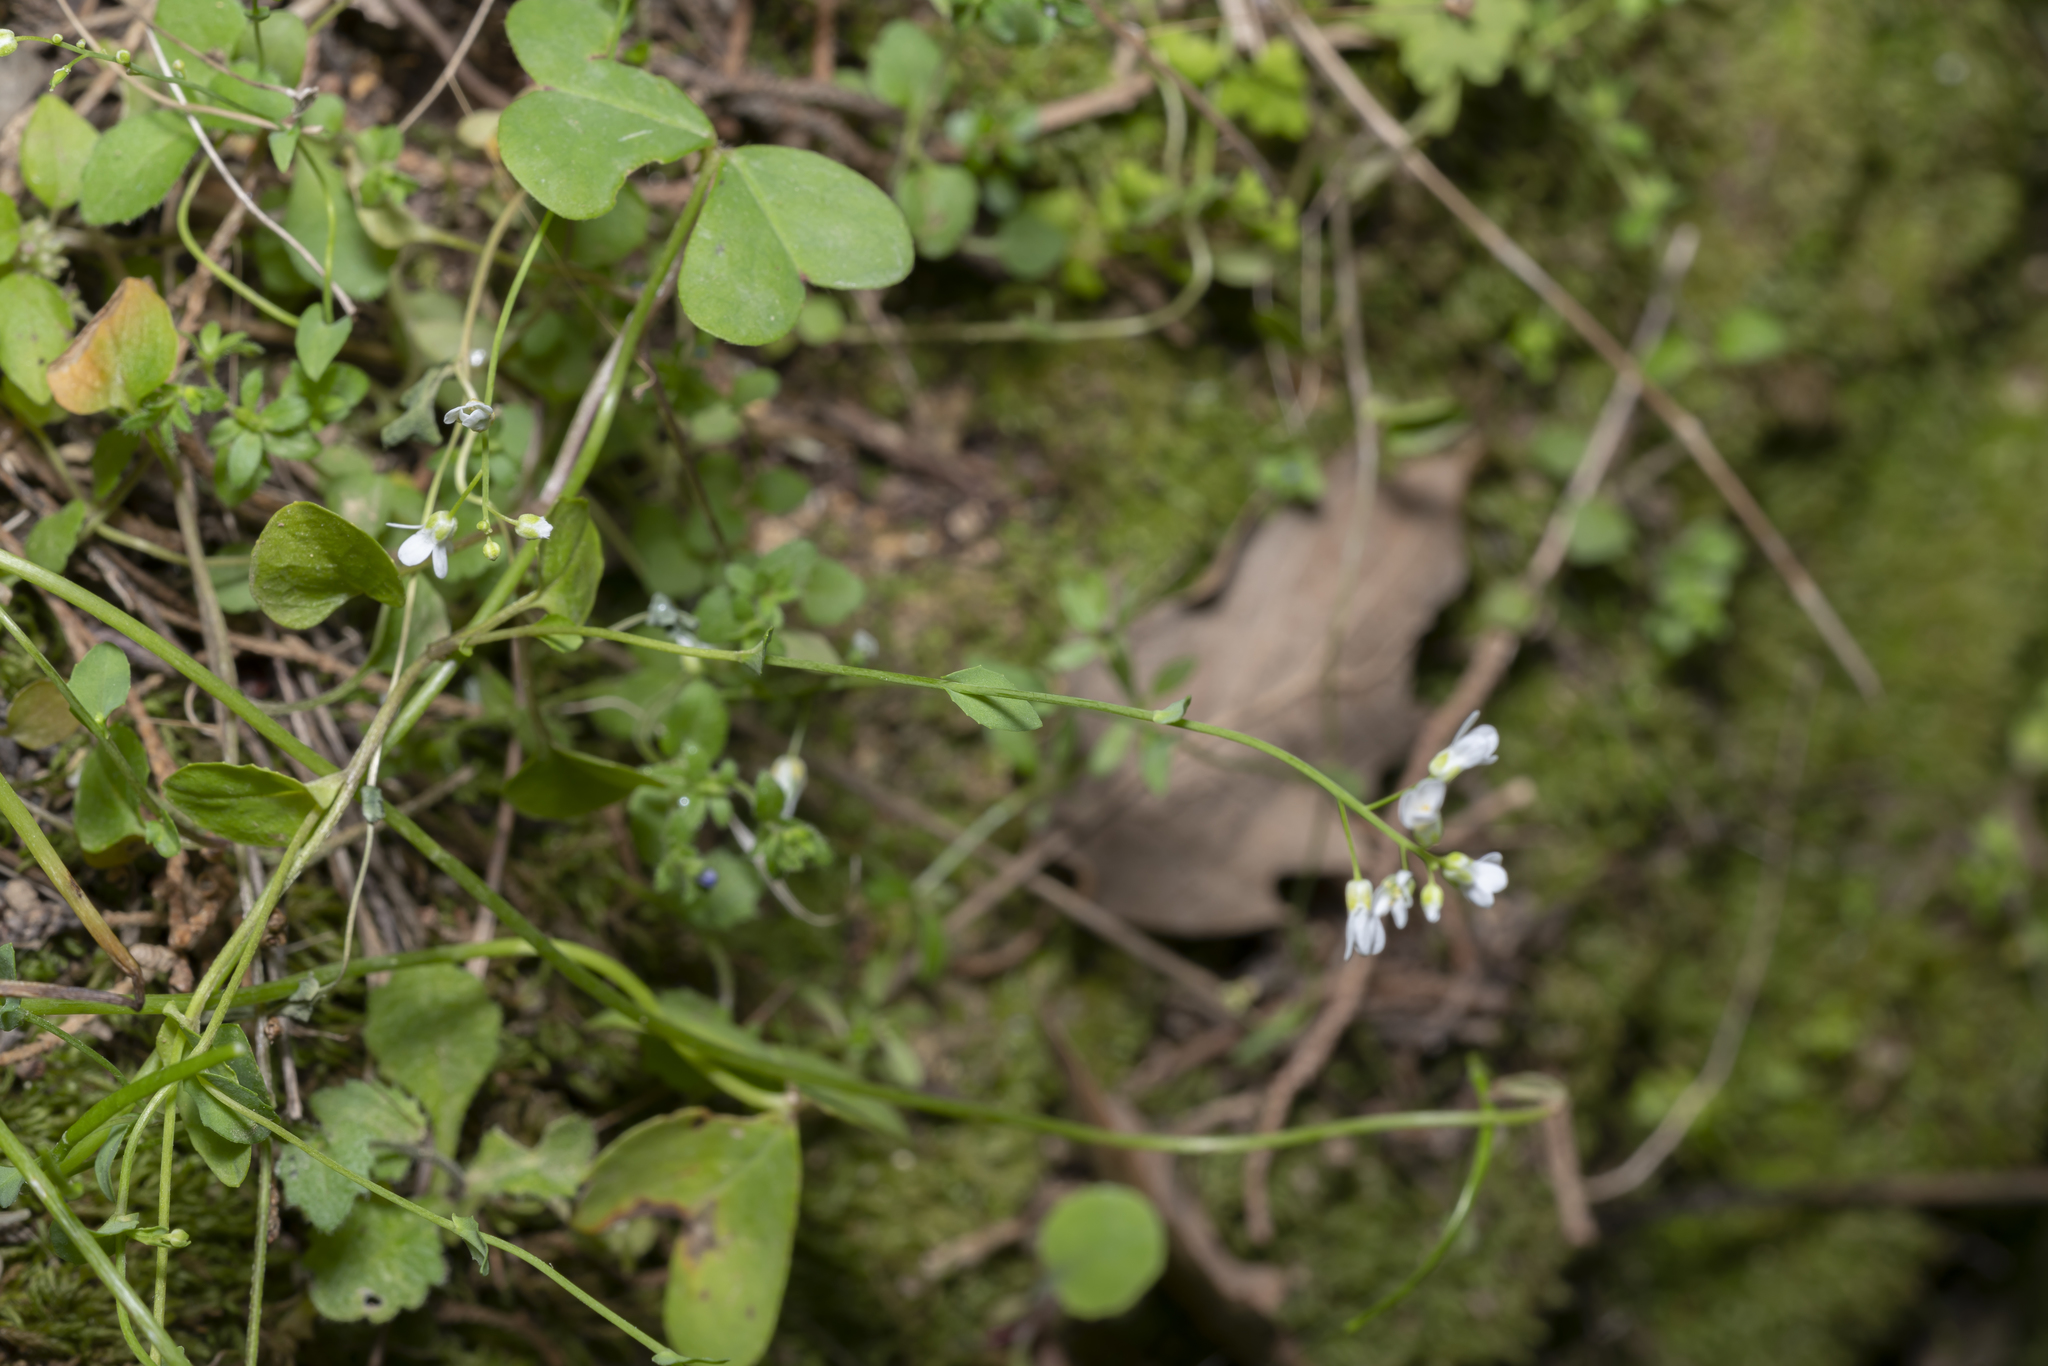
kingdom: Plantae
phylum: Tracheophyta
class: Magnoliopsida
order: Brassicales
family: Brassicaceae
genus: Noccaea
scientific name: Noccaea natolica
